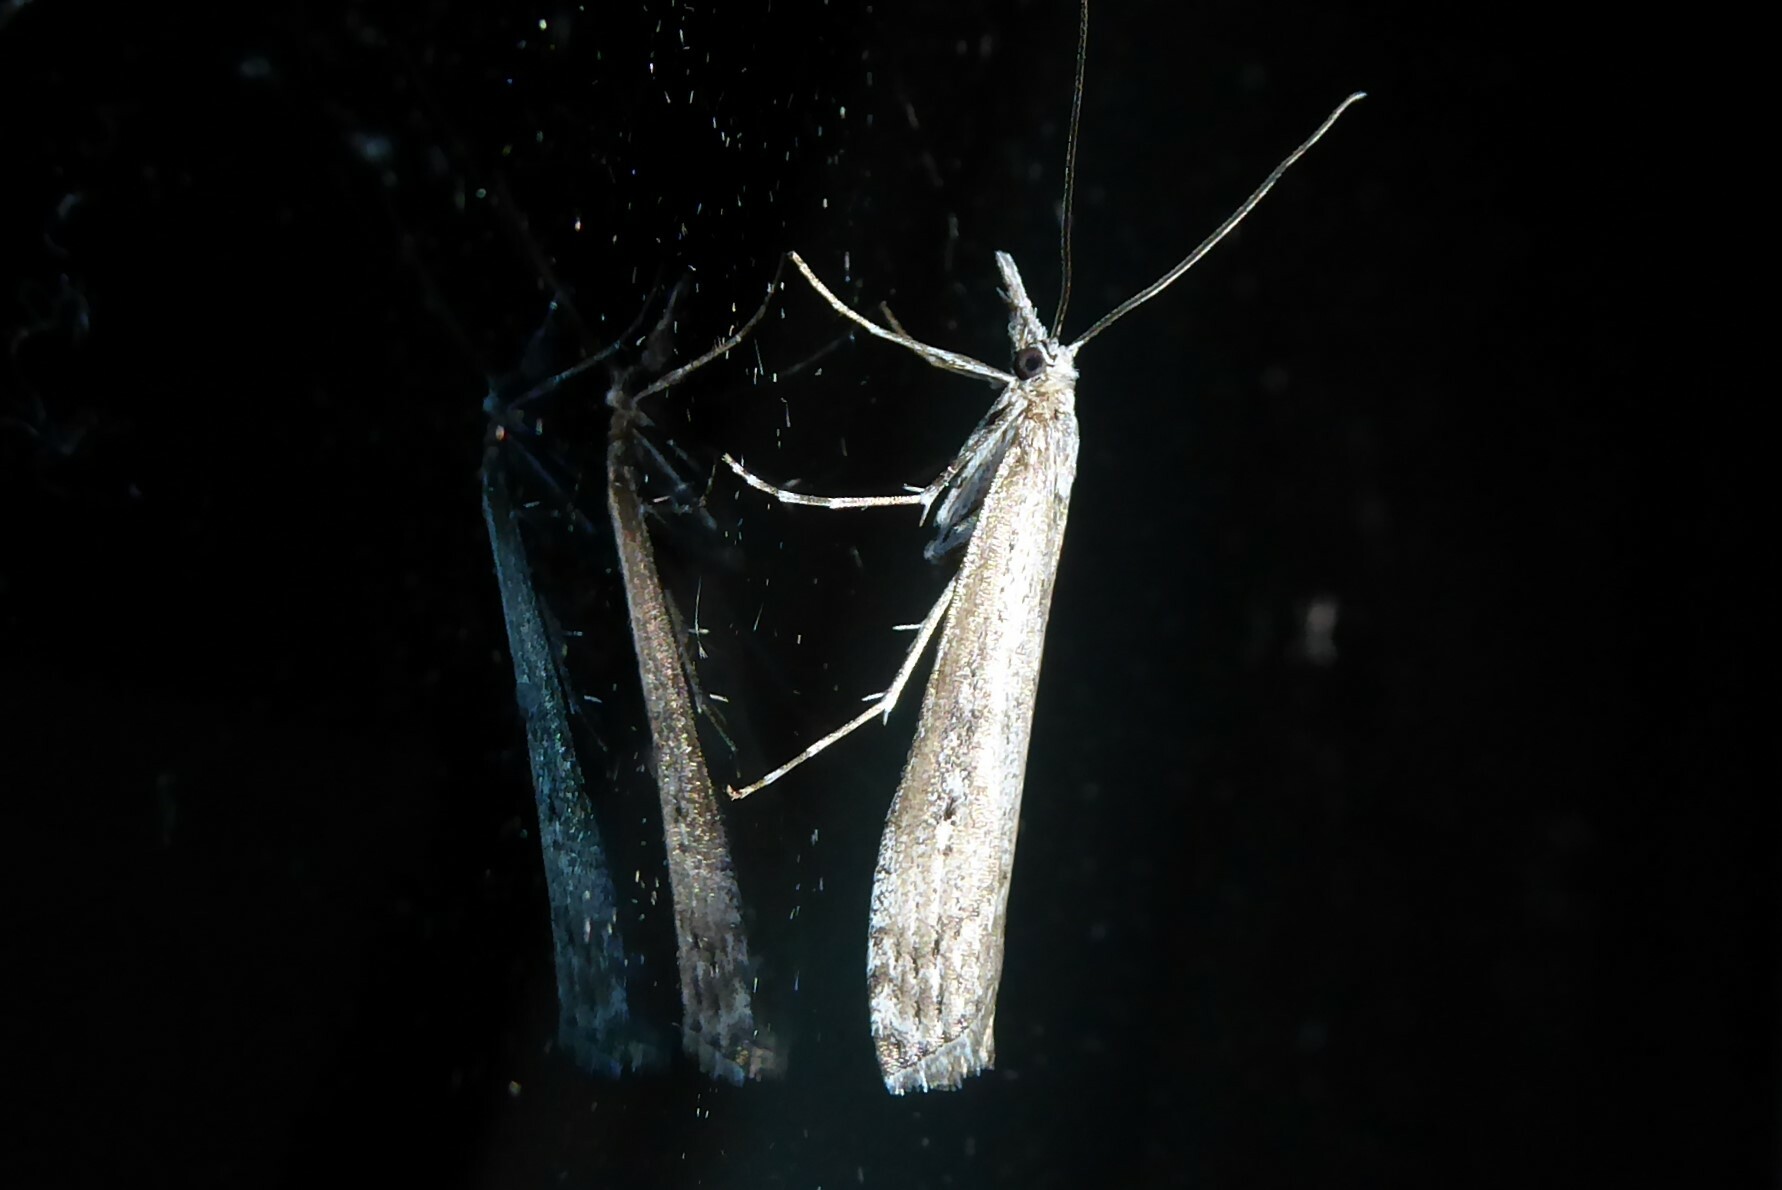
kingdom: Animalia
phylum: Arthropoda
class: Insecta
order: Lepidoptera
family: Crambidae
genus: Orocrambus
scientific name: Orocrambus cyclopicus
